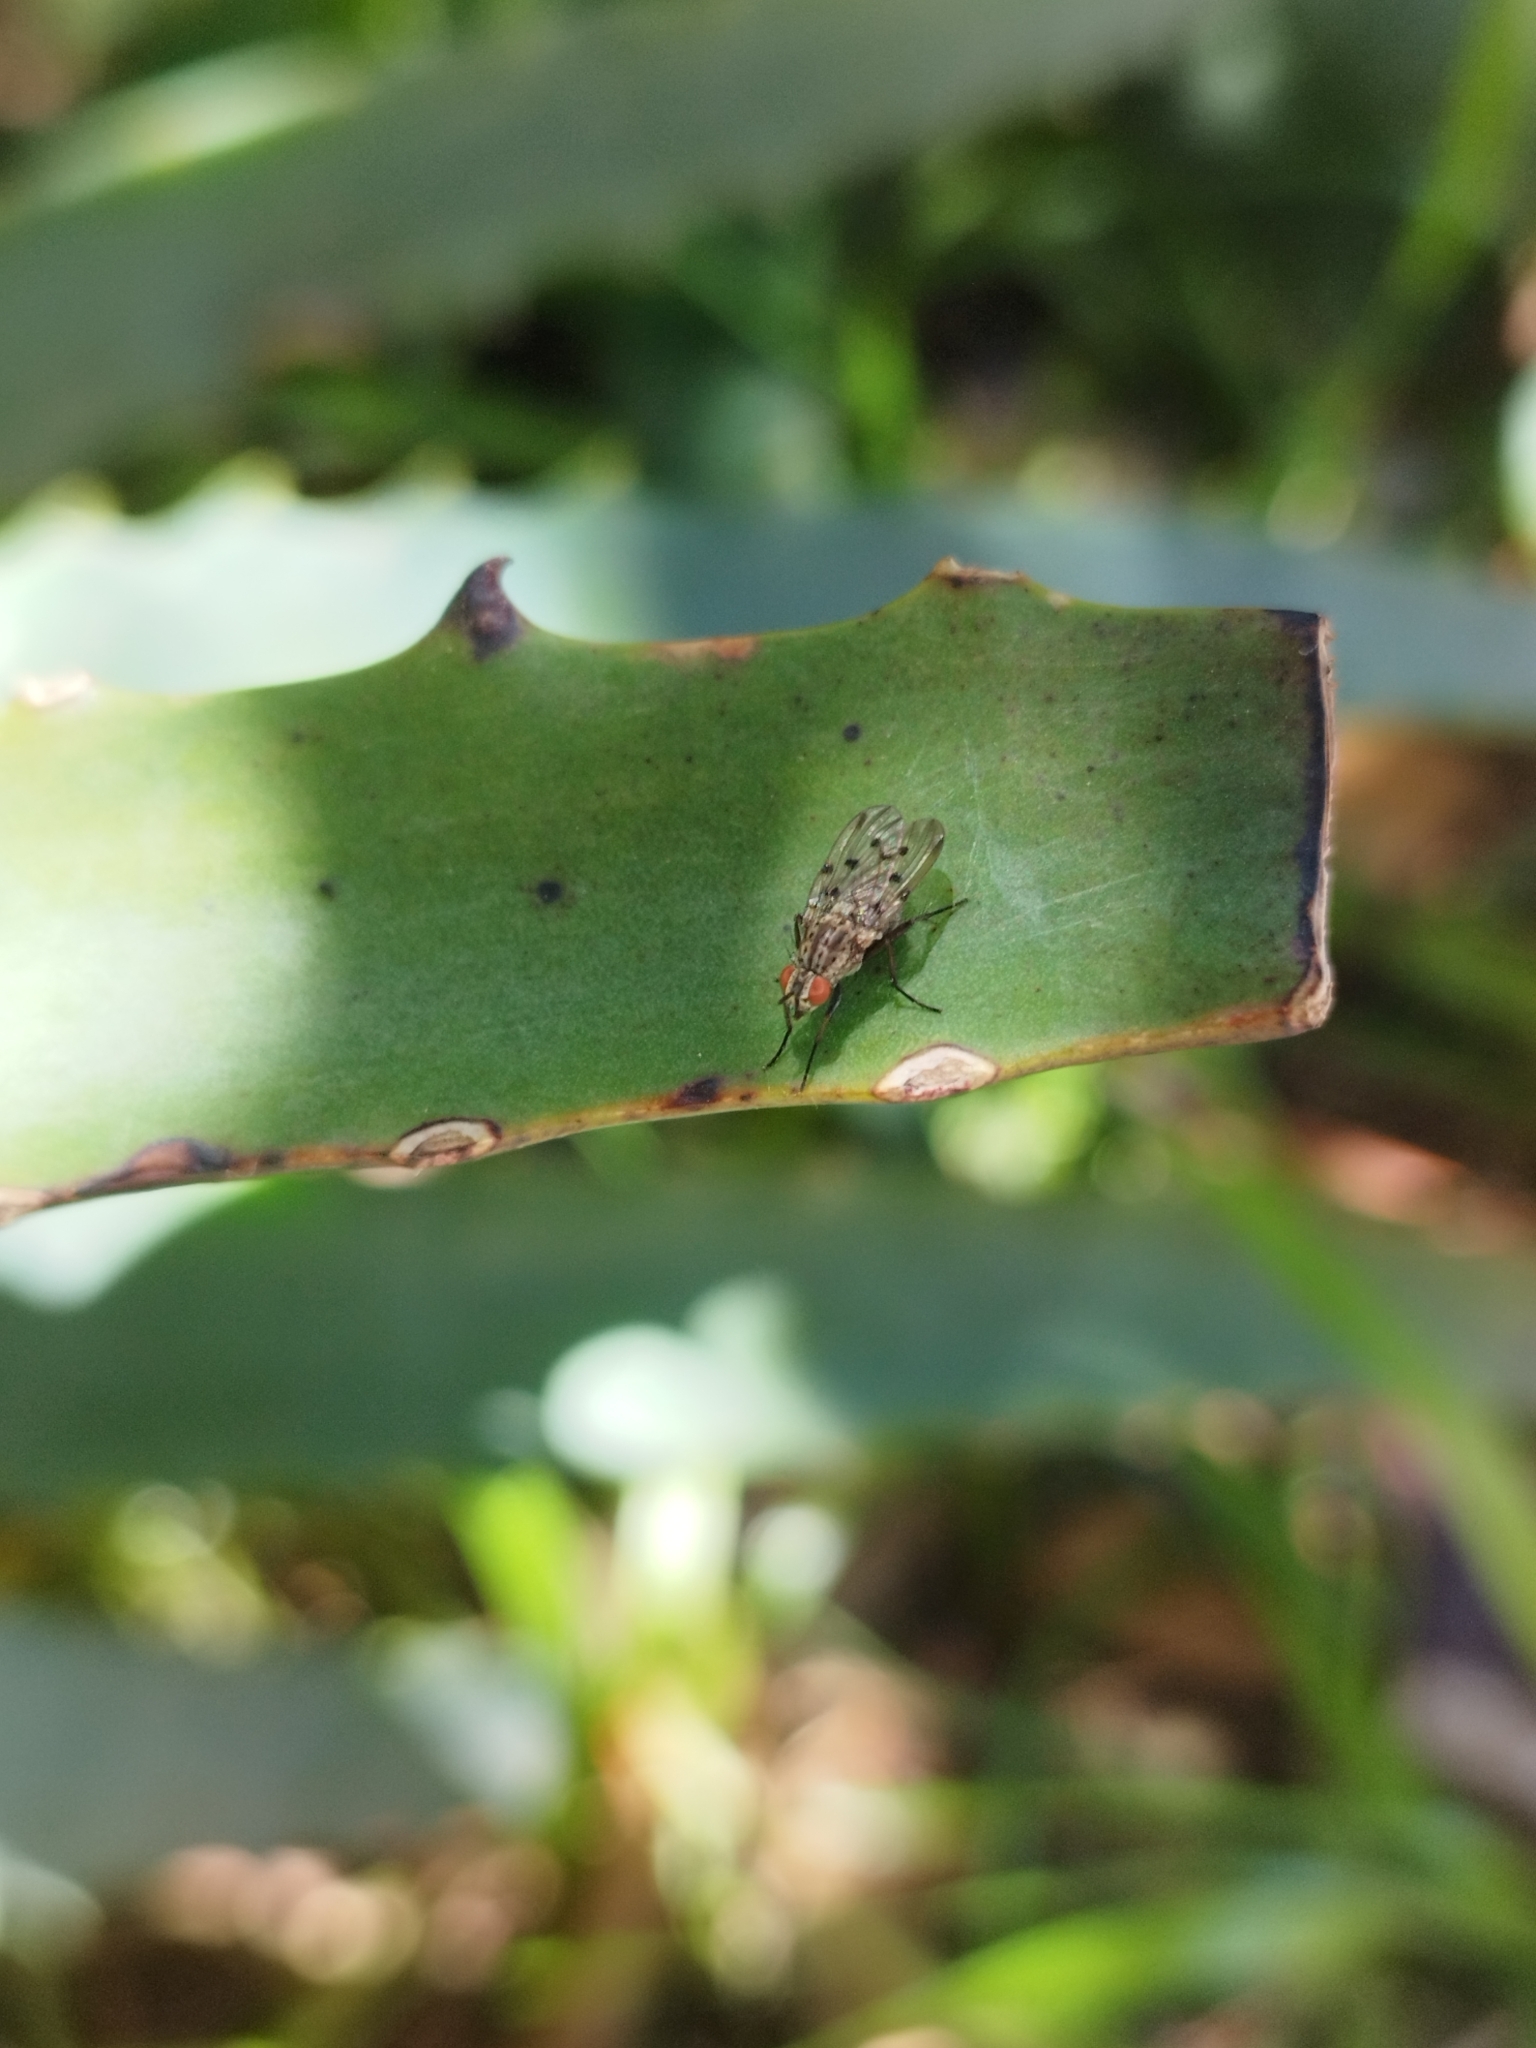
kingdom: Animalia
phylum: Arthropoda
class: Insecta
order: Diptera
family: Anthomyiidae
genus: Anthomyia
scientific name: Anthomyia
